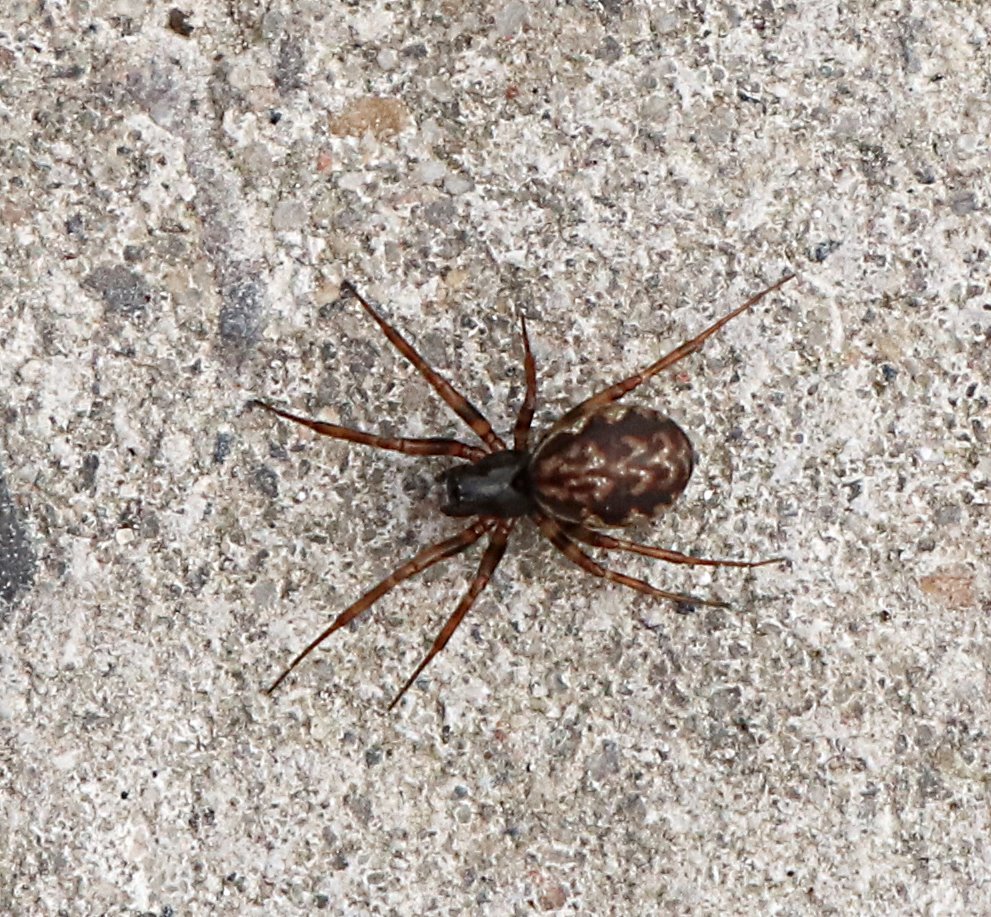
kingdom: Animalia
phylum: Arthropoda
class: Arachnida
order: Araneae
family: Linyphiidae
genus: Neriene
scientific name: Neriene clathrata
